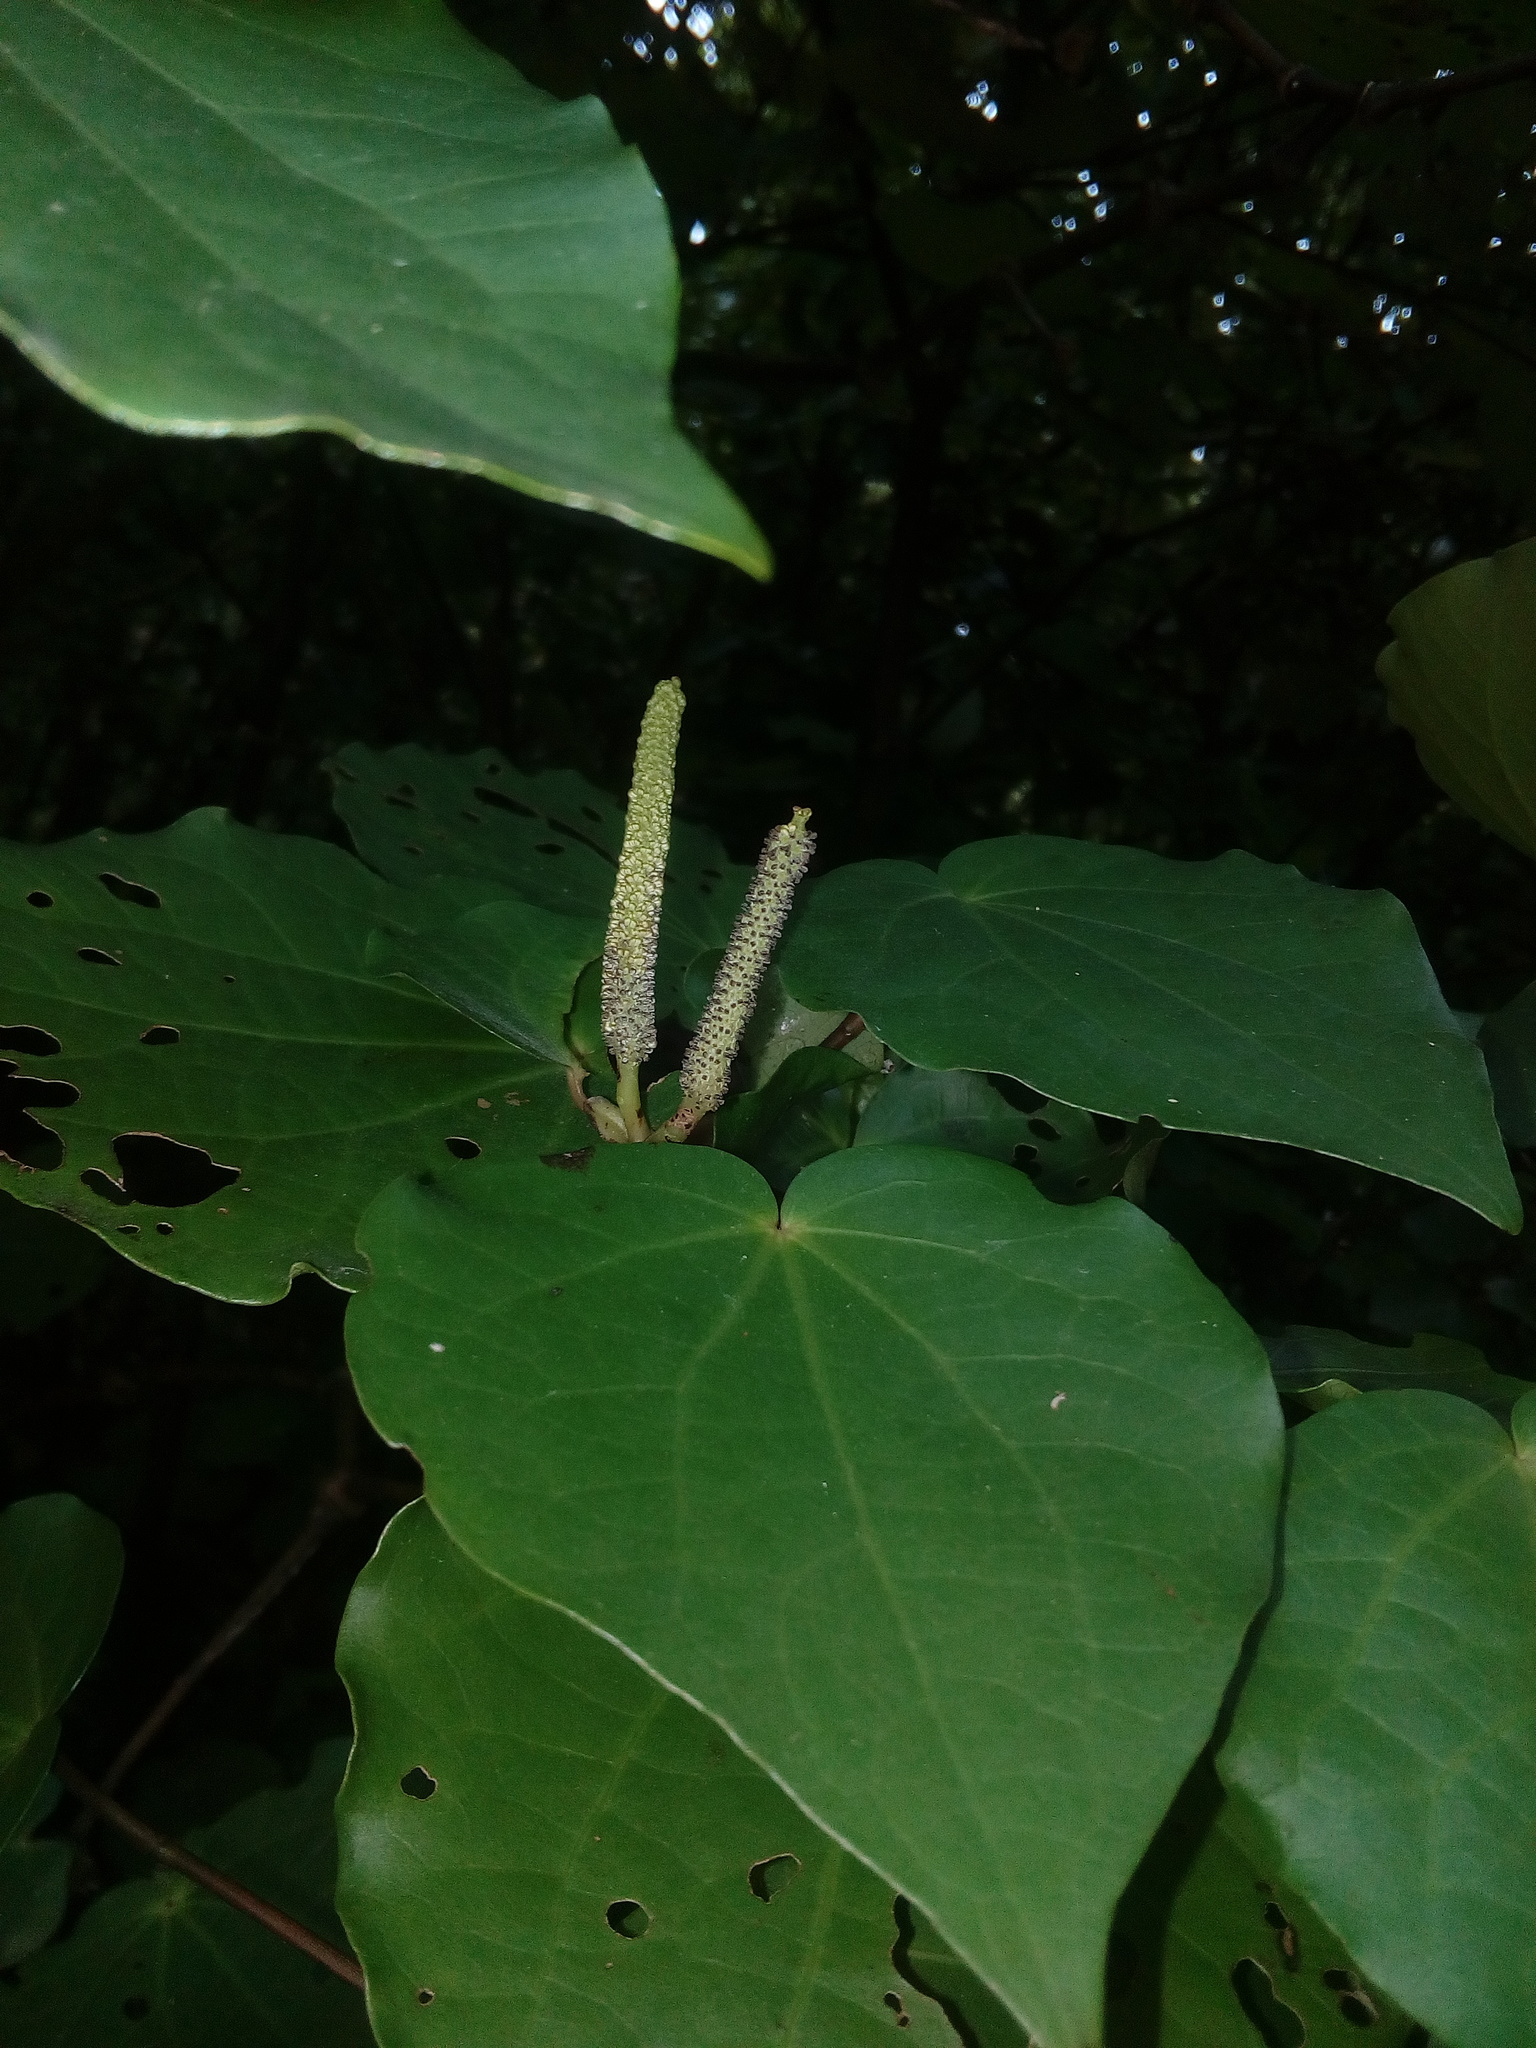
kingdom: Plantae
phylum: Tracheophyta
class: Magnoliopsida
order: Piperales
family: Piperaceae
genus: Macropiper
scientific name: Macropiper excelsum
